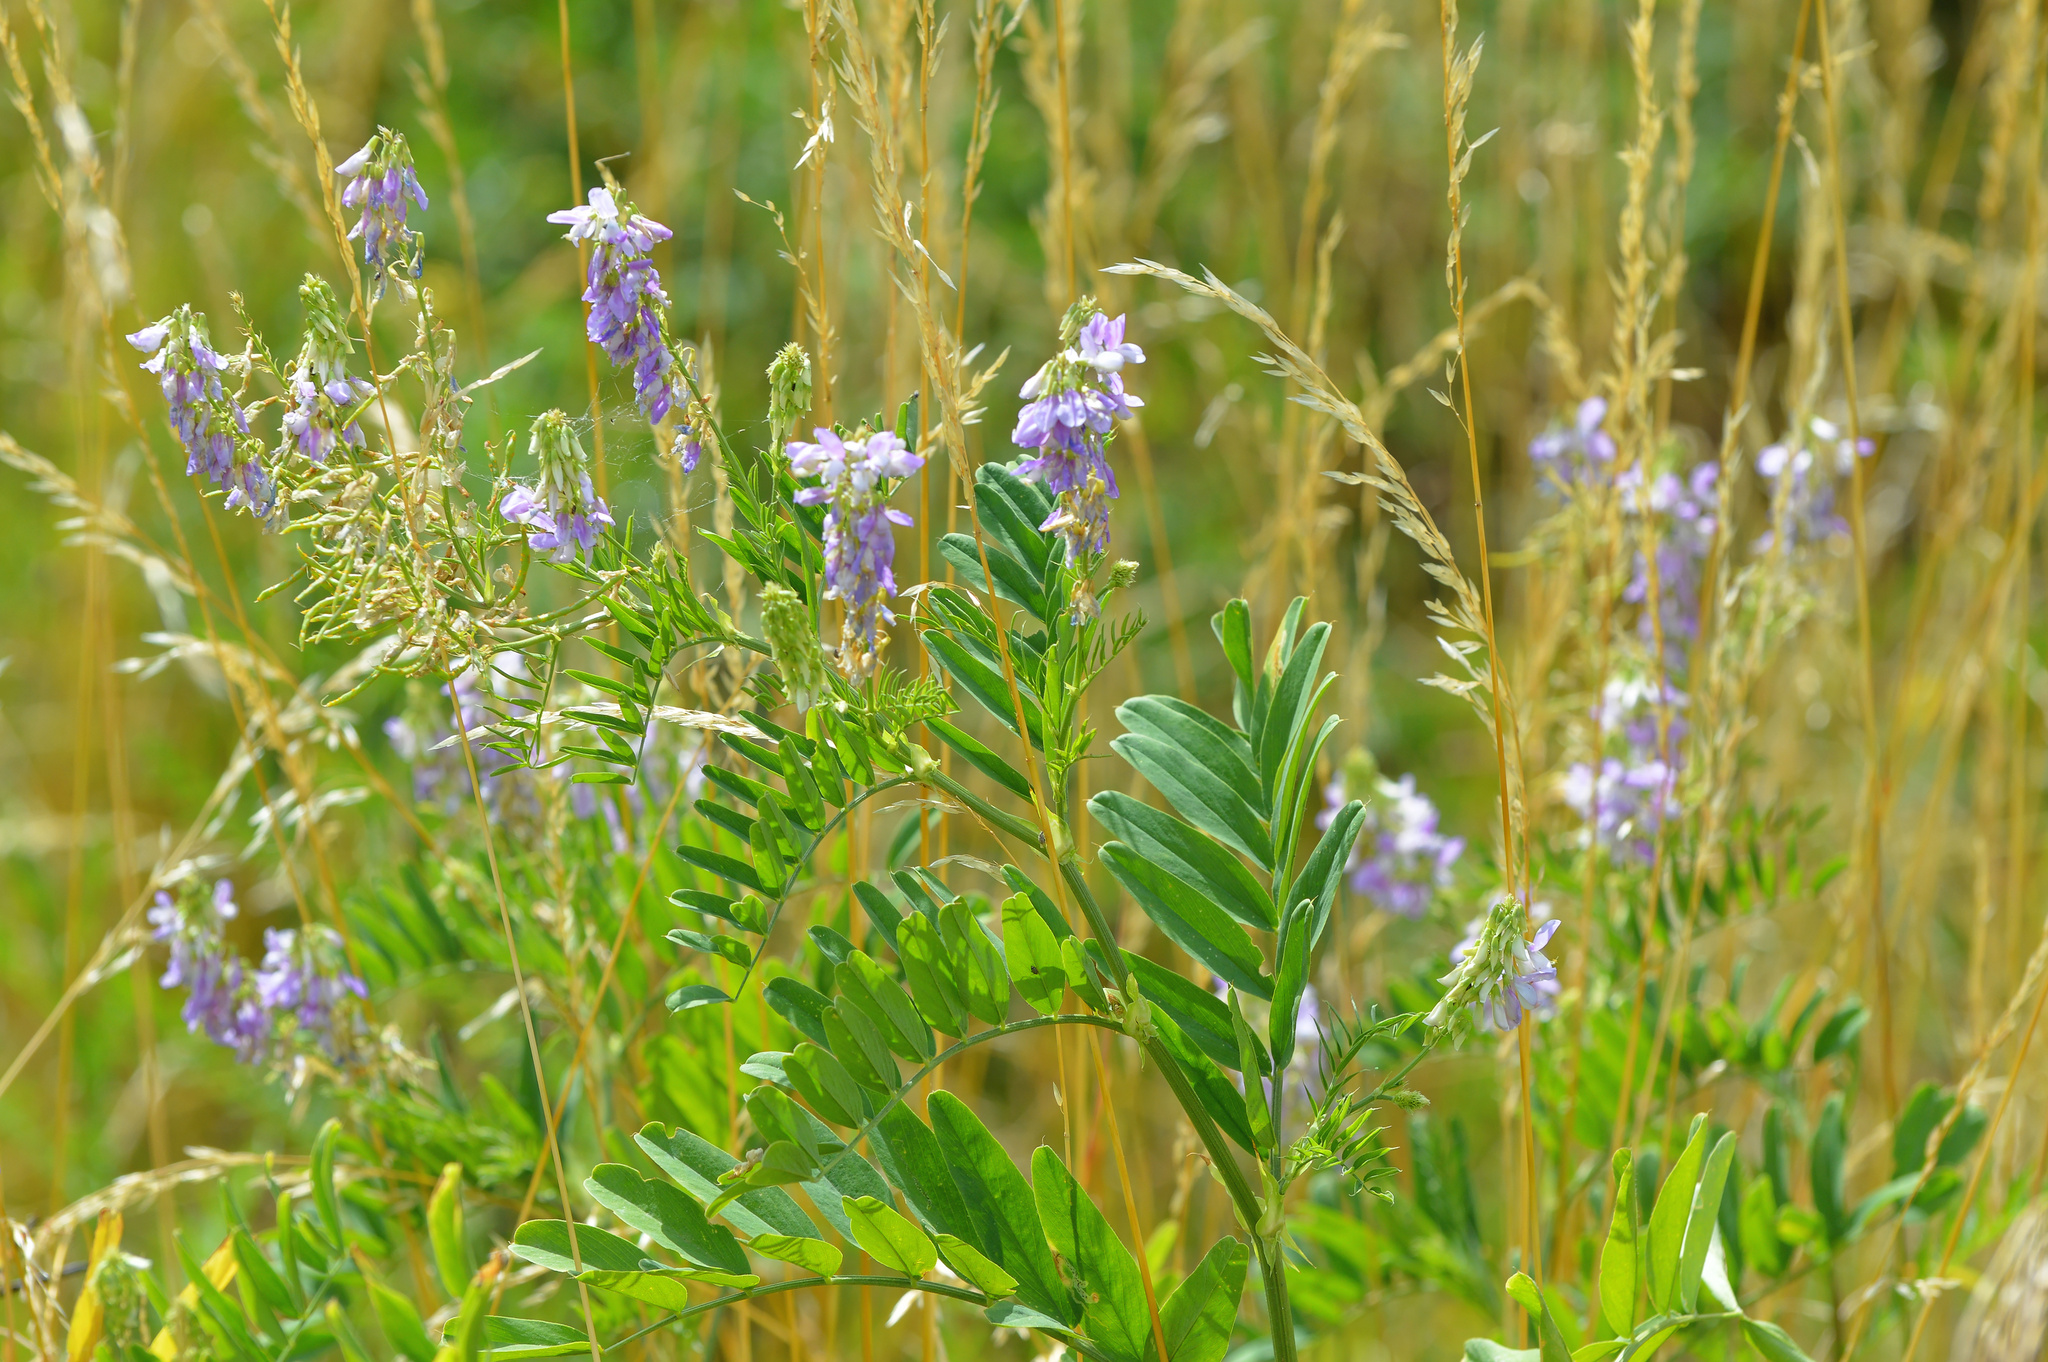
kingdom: Plantae
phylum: Tracheophyta
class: Magnoliopsida
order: Fabales
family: Fabaceae
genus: Galega
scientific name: Galega officinalis
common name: Goat's-rue
